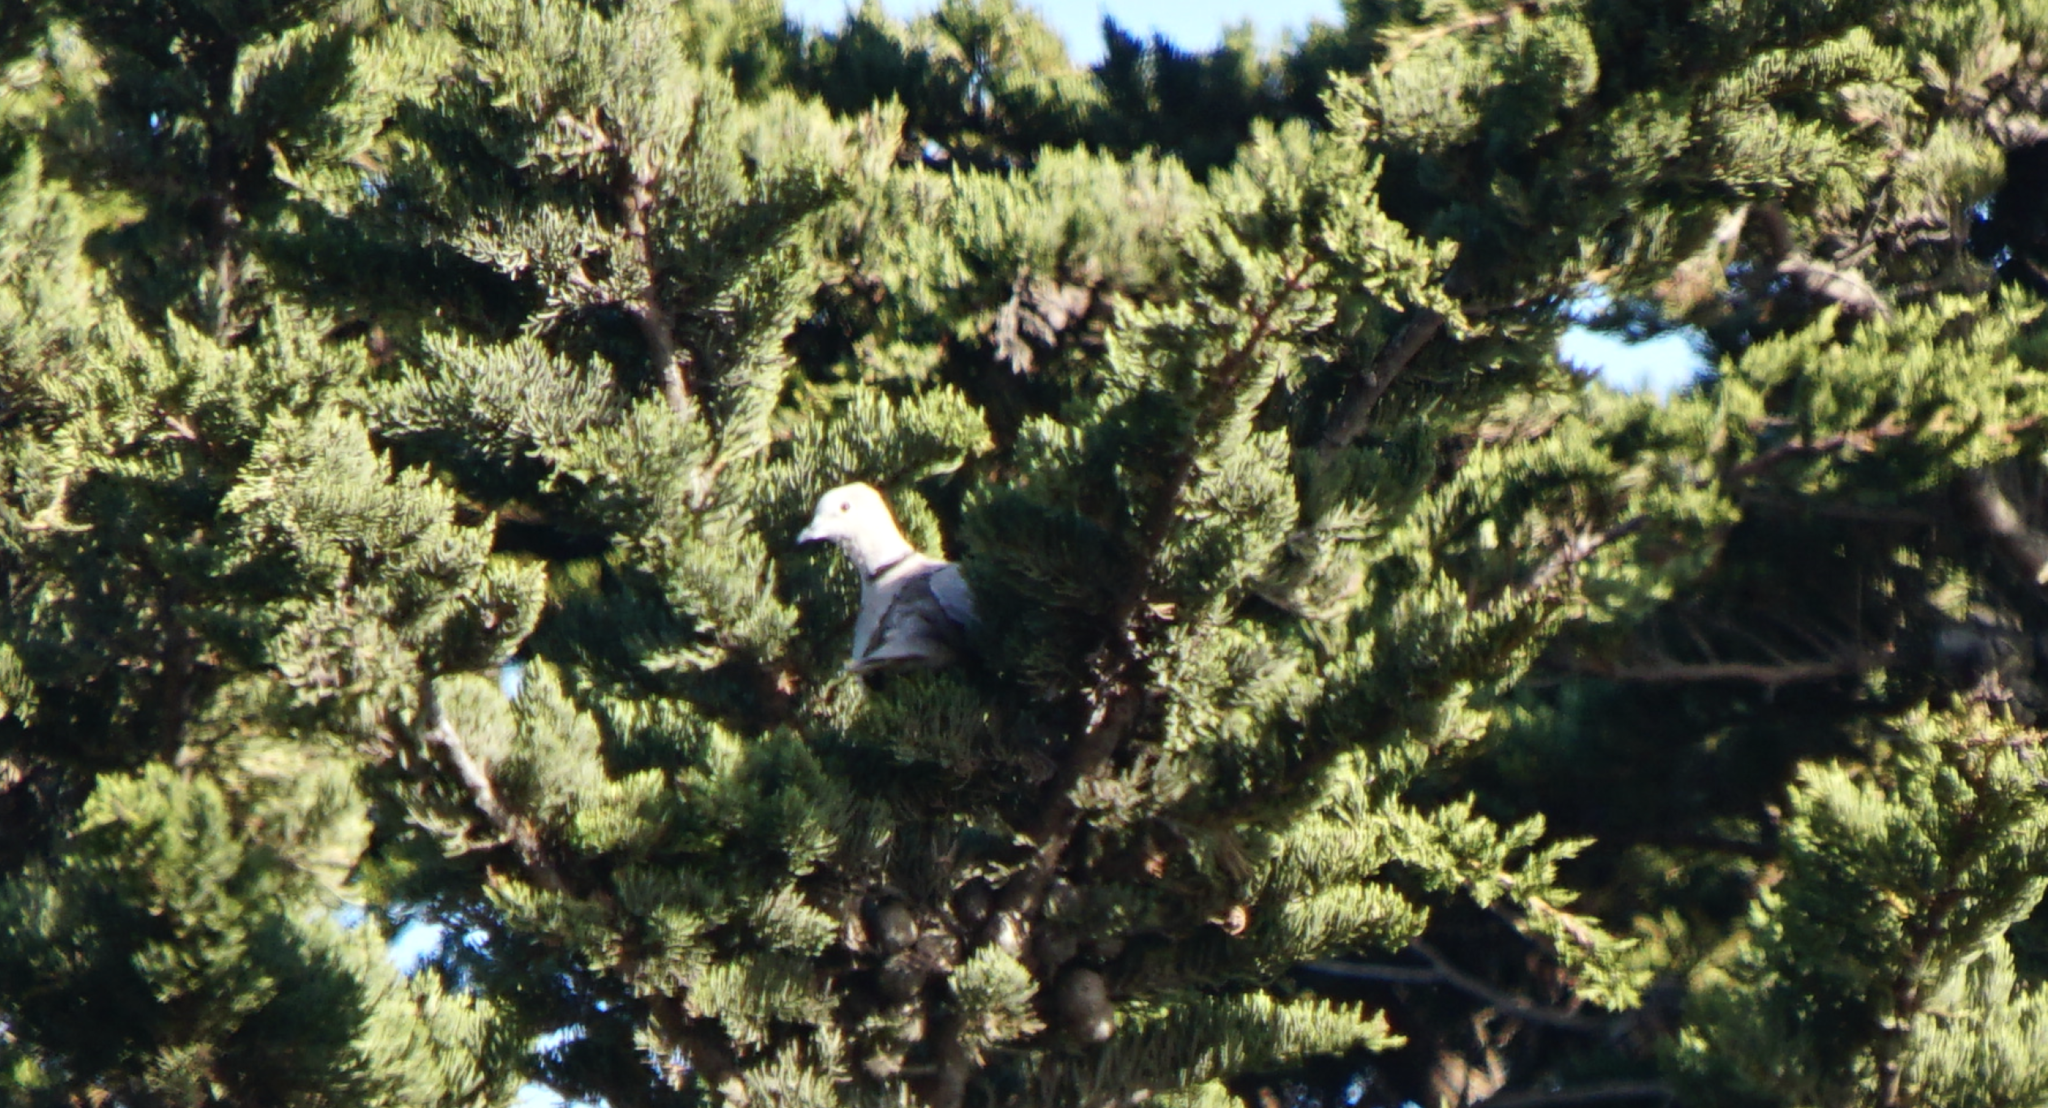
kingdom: Animalia
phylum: Chordata
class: Aves
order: Columbiformes
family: Columbidae
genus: Streptopelia
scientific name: Streptopelia decaocto
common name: Eurasian collared dove
